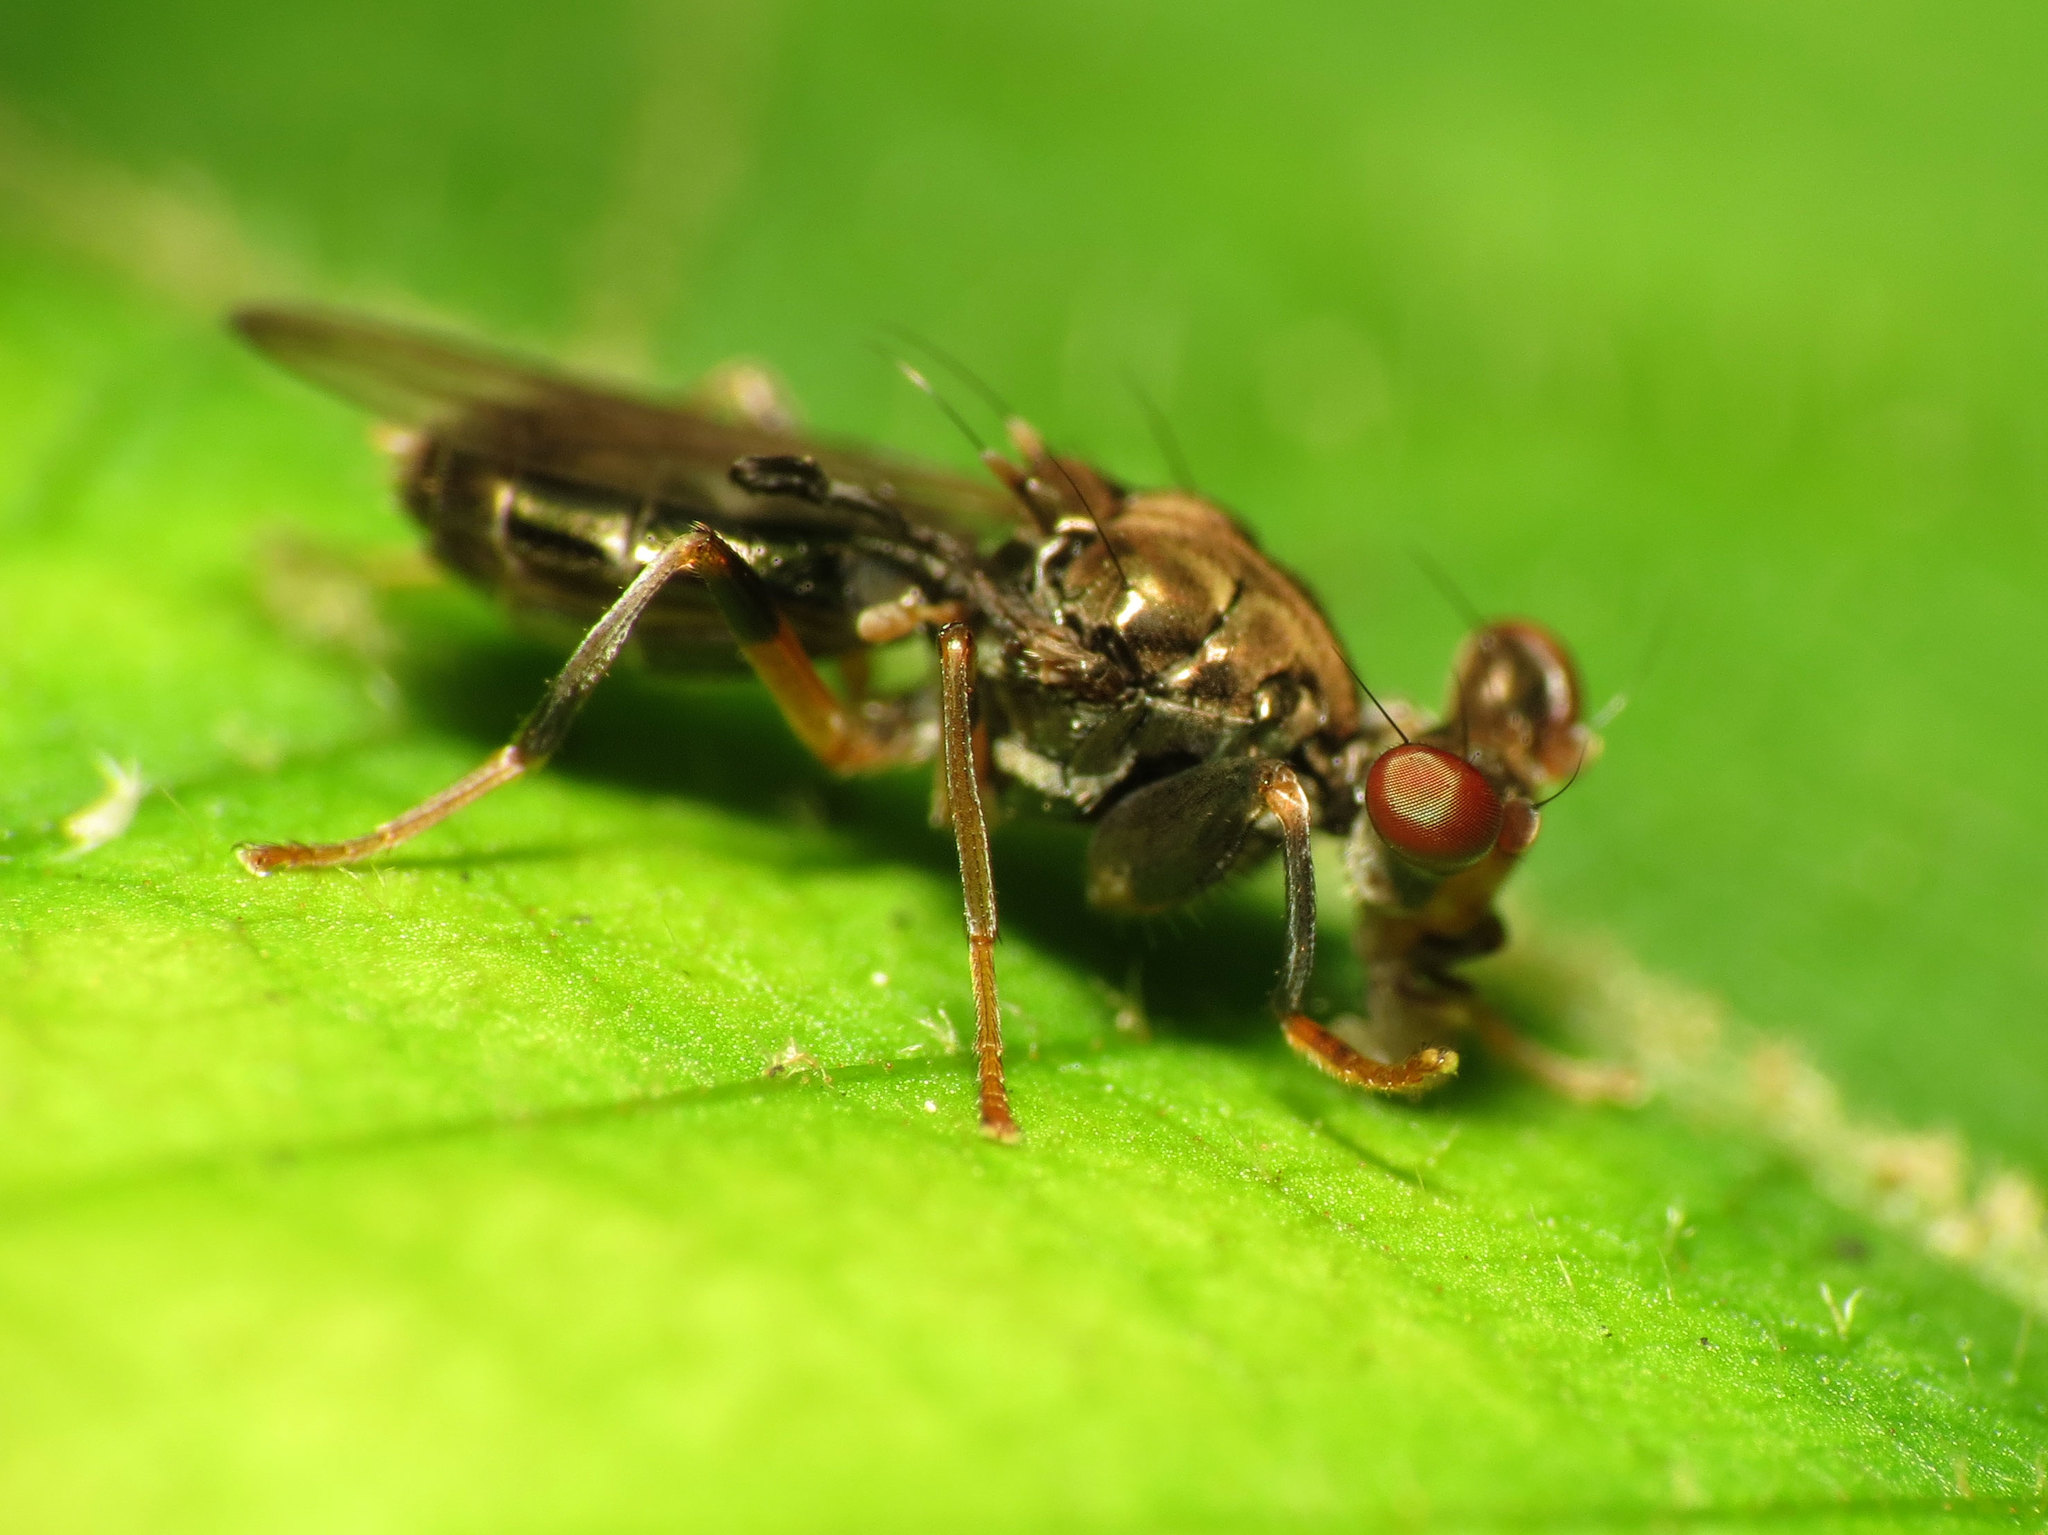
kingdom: Animalia
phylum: Arthropoda
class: Insecta
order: Diptera
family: Diopsidae
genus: Sphyracephala
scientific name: Sphyracephala brevicornis
